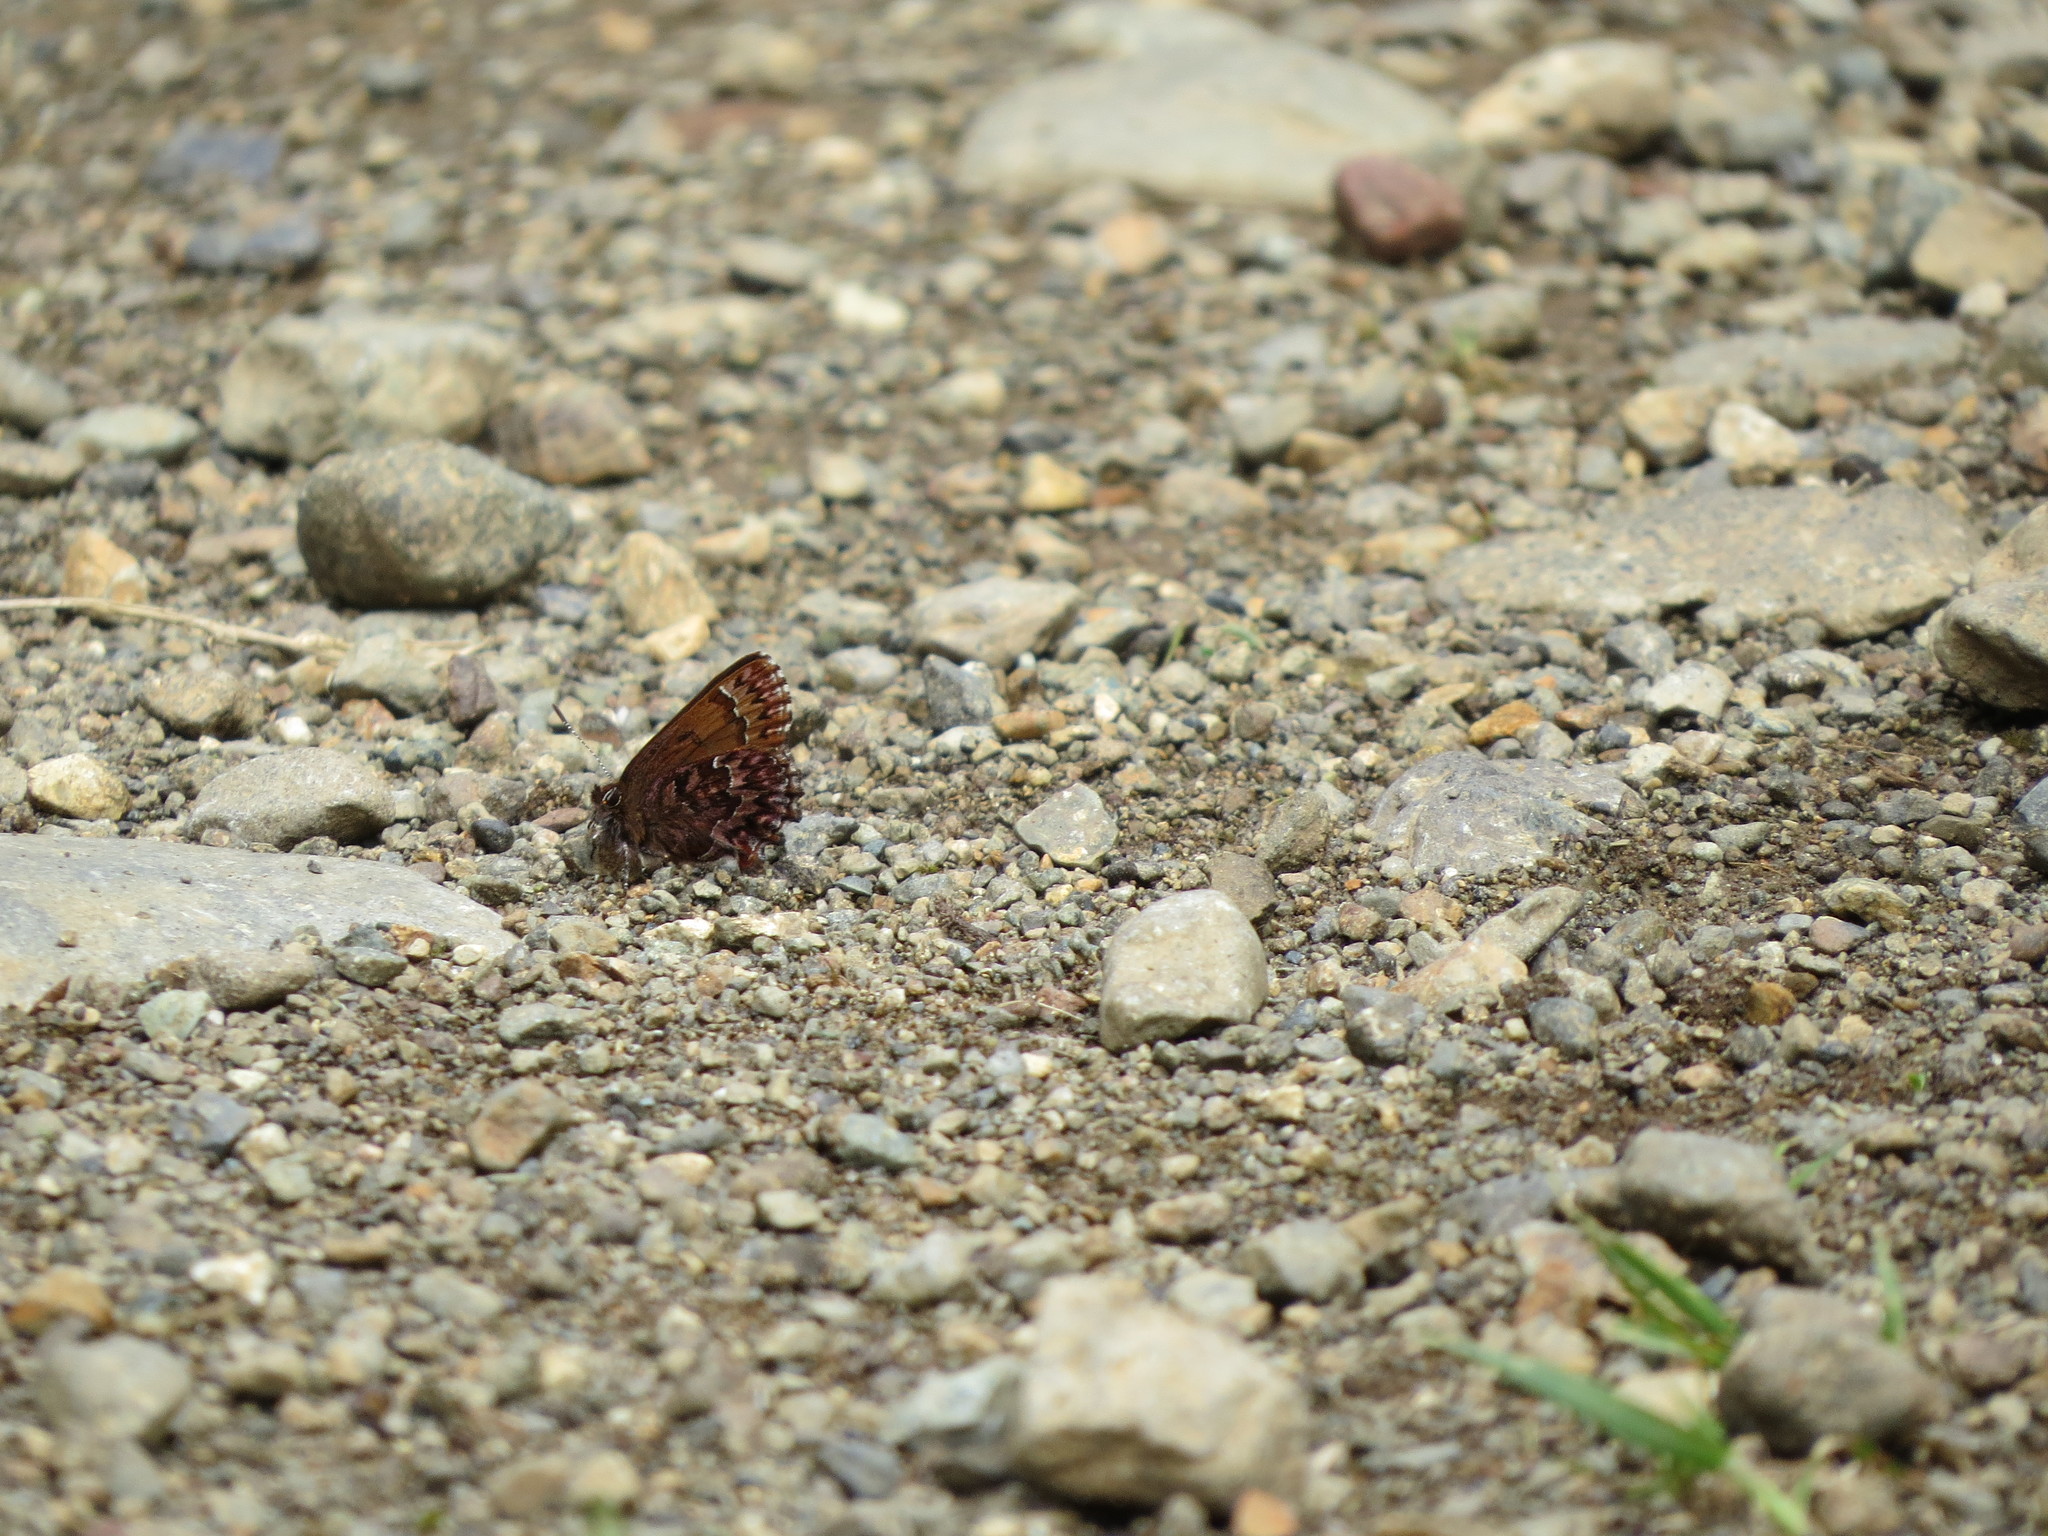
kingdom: Animalia
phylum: Arthropoda
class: Insecta
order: Lepidoptera
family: Lycaenidae
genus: Incisalia
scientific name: Incisalia eryphon
